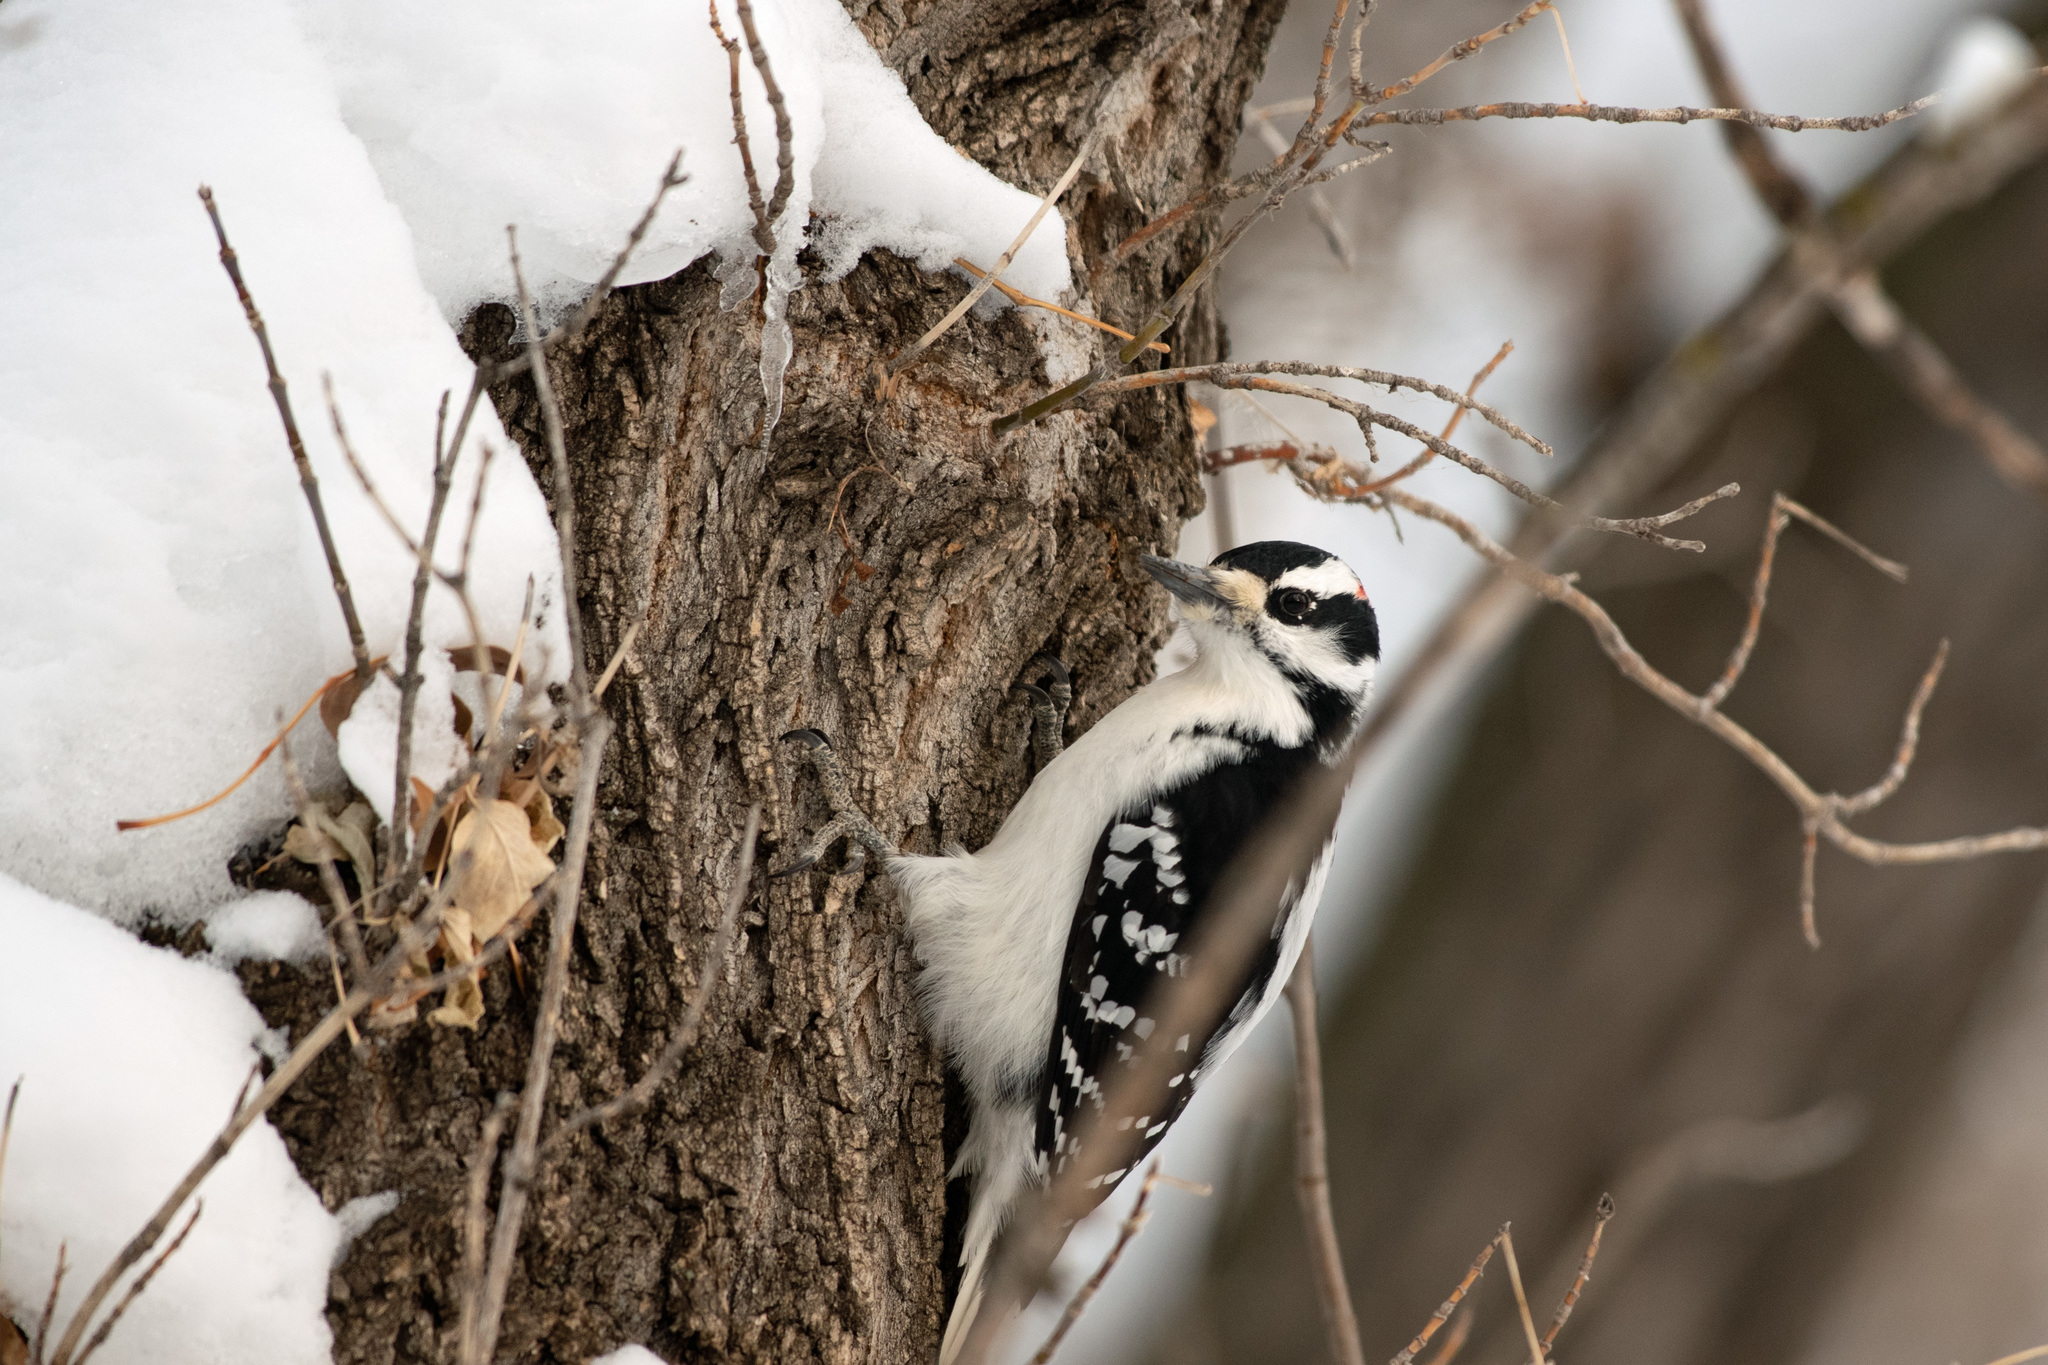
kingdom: Animalia
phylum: Chordata
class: Aves
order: Piciformes
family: Picidae
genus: Leuconotopicus
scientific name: Leuconotopicus villosus
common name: Hairy woodpecker
